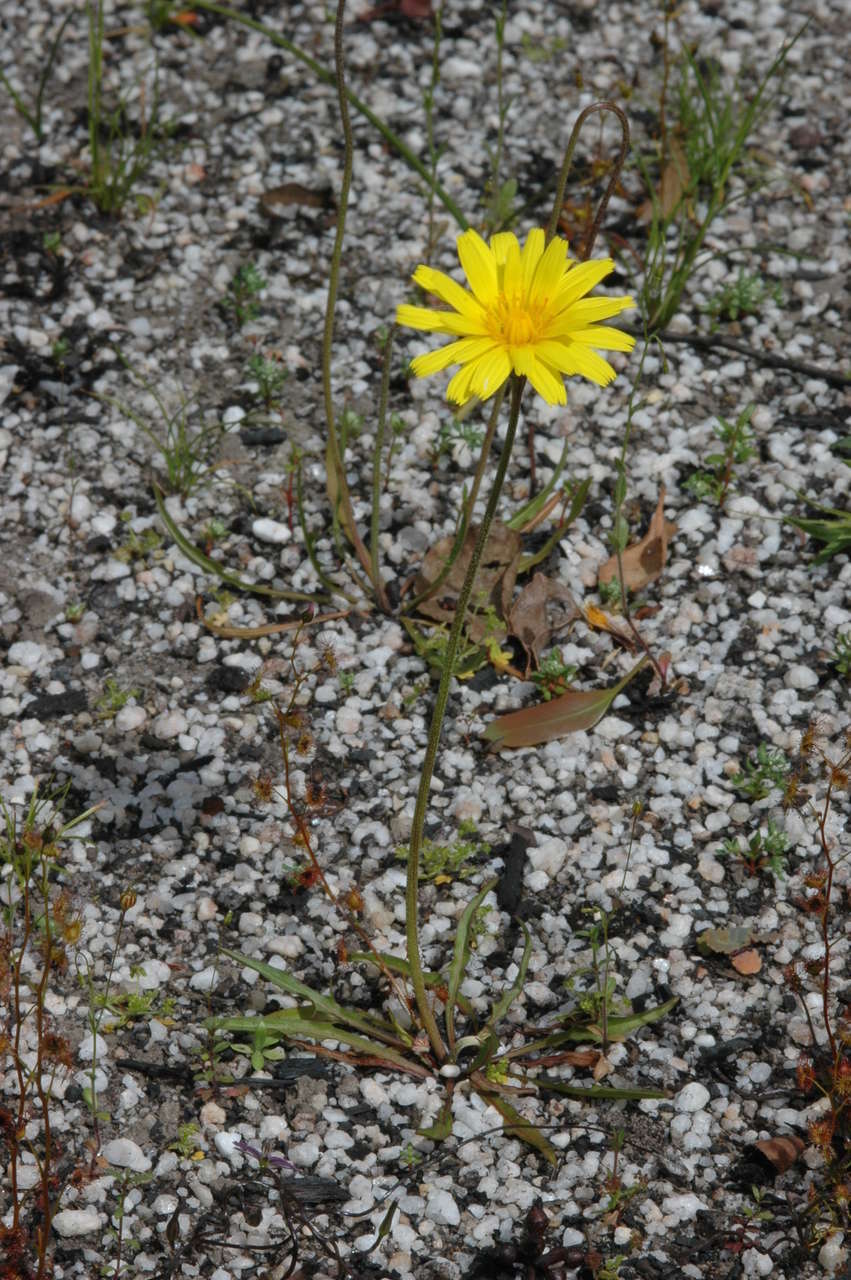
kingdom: Plantae
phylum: Tracheophyta
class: Magnoliopsida
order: Asterales
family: Asteraceae
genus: Microseris
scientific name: Microseris lanceolata
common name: Yam daisy
